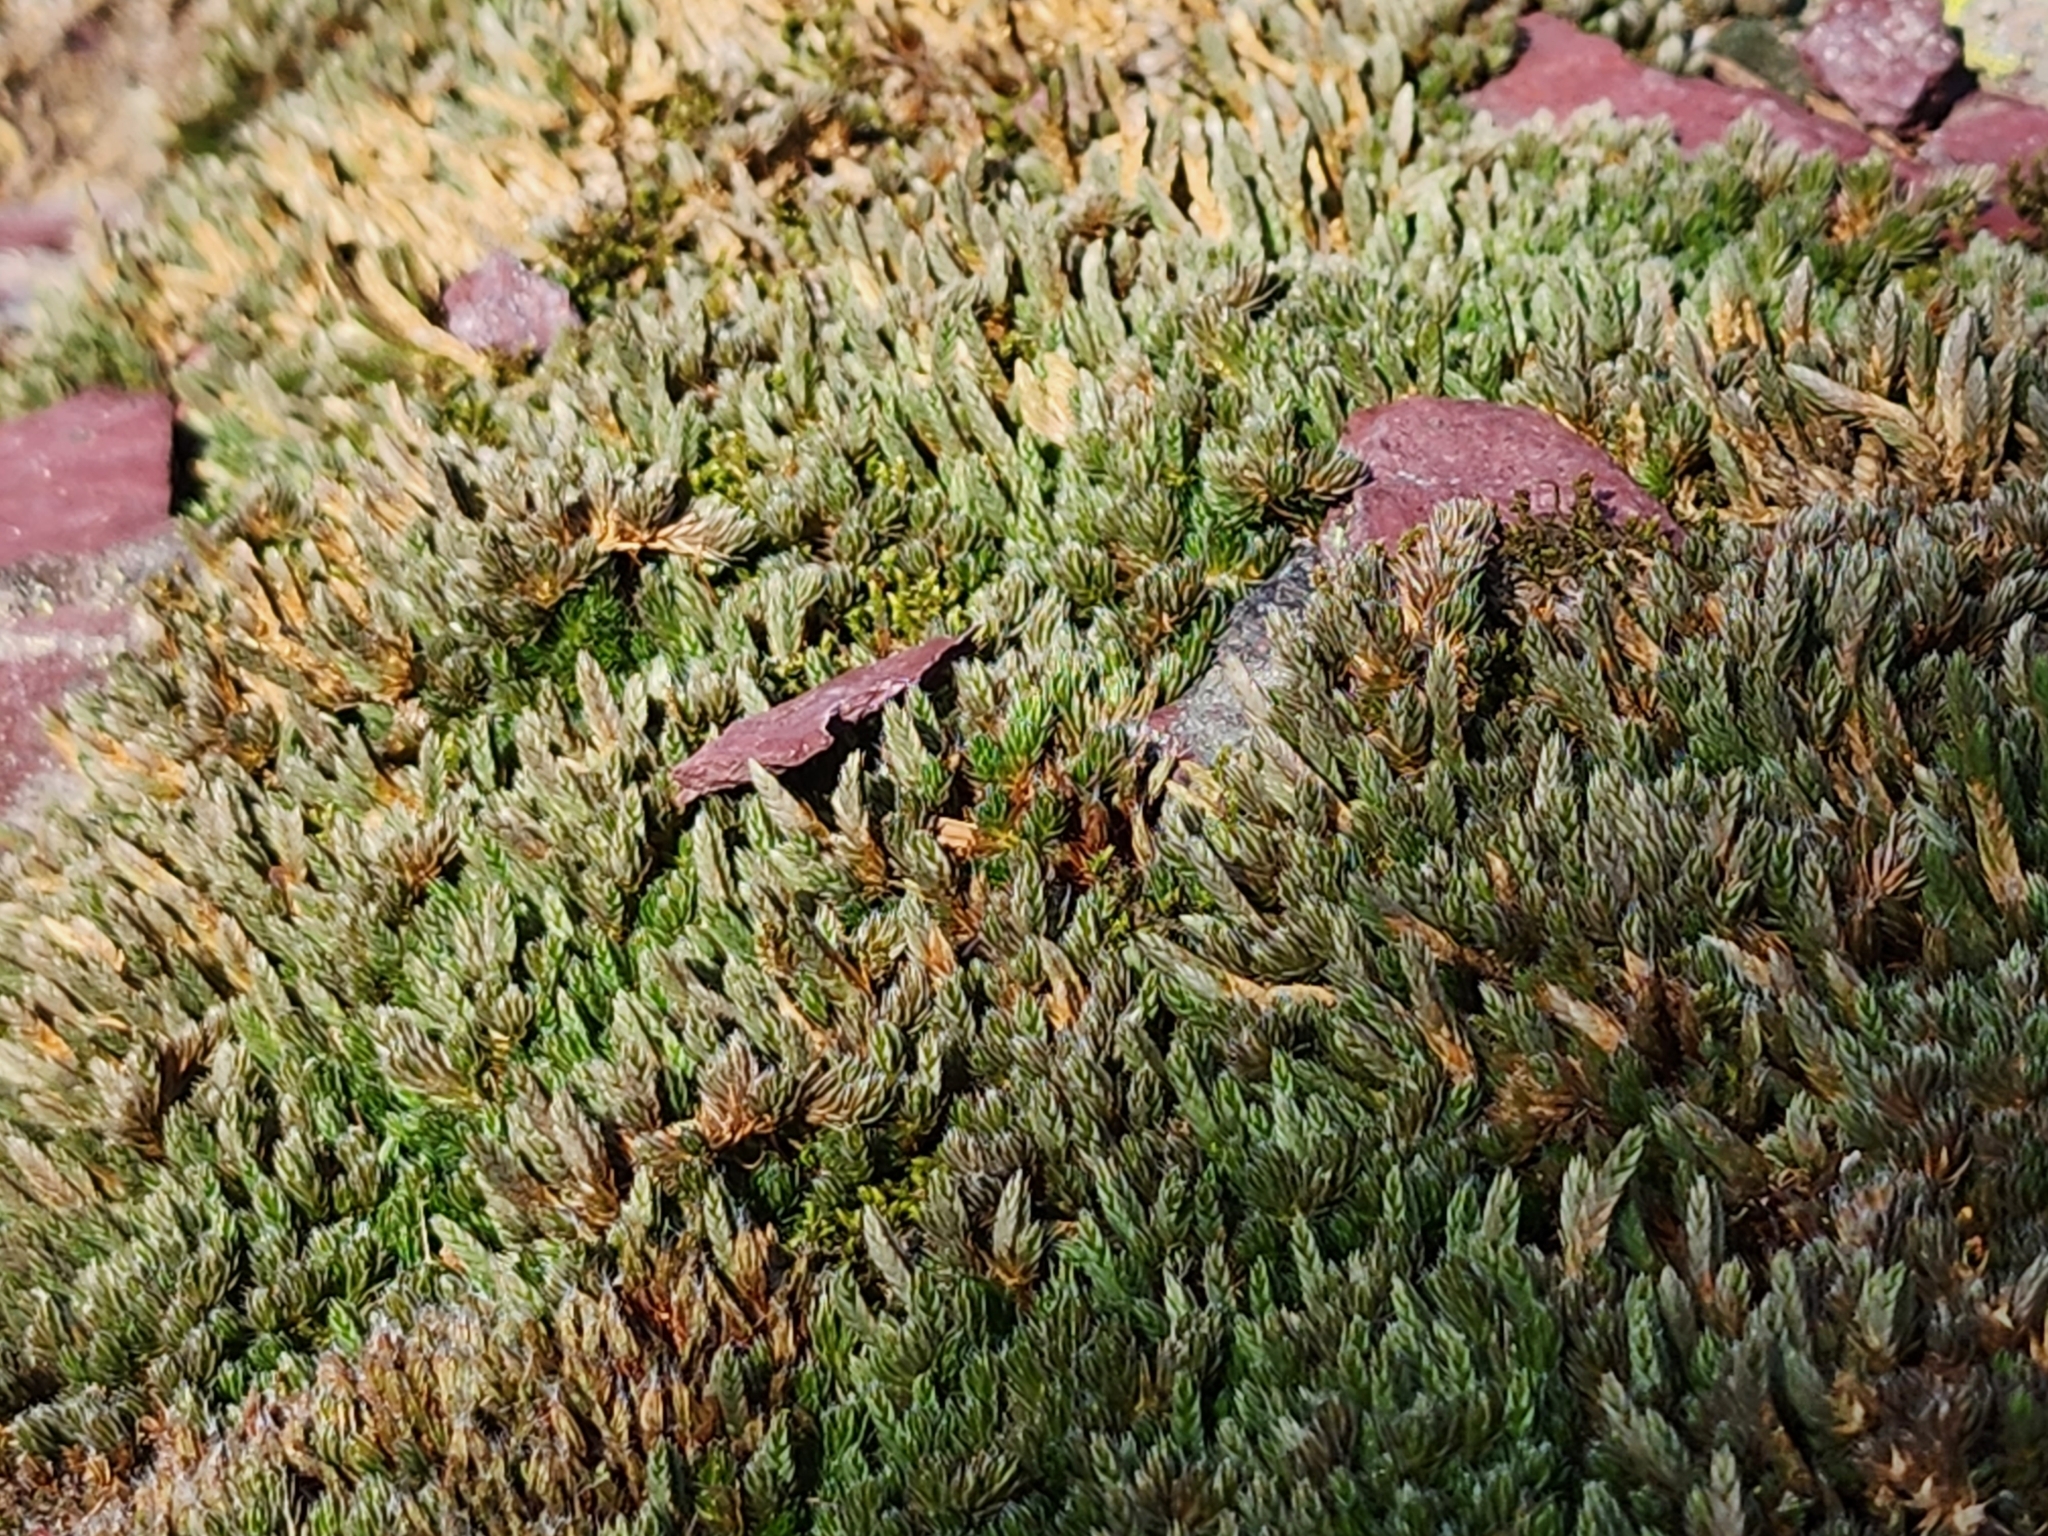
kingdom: Plantae
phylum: Tracheophyta
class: Lycopodiopsida
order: Selaginellales
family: Selaginellaceae
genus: Selaginella
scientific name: Selaginella densa
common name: Mountain spike-moss
